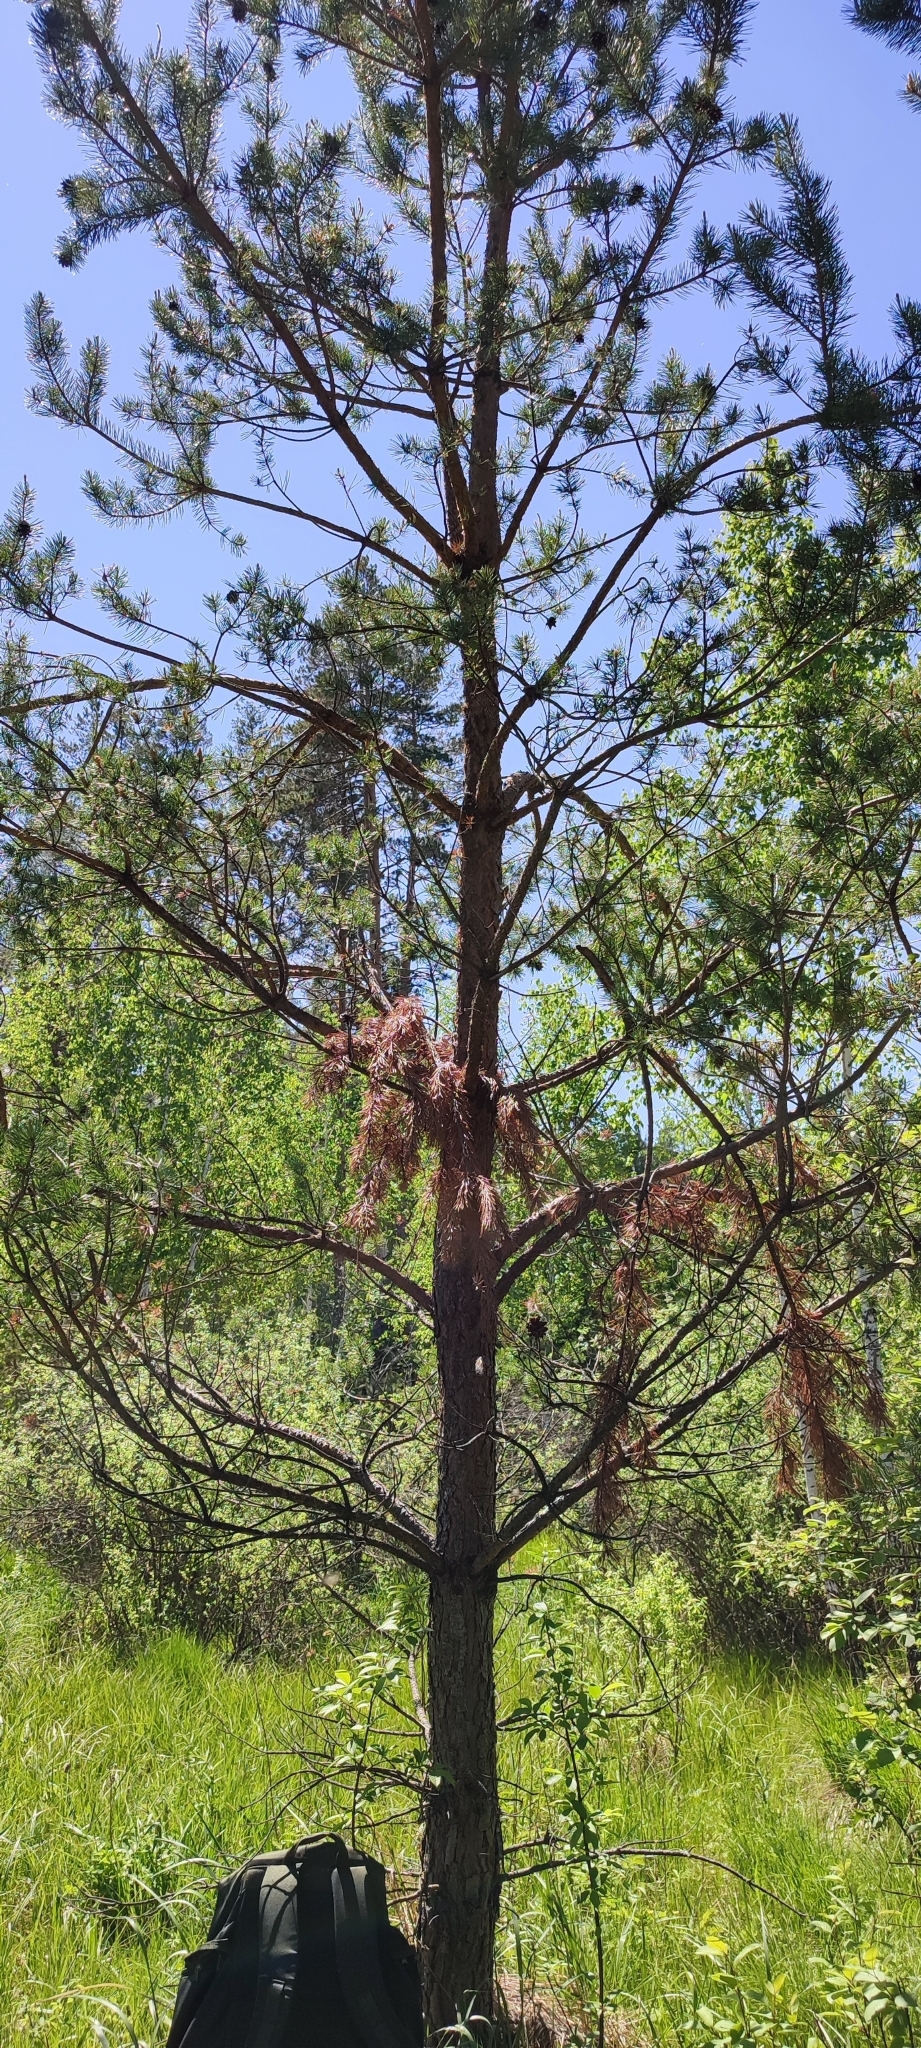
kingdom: Plantae
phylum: Tracheophyta
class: Pinopsida
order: Pinales
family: Pinaceae
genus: Pinus
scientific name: Pinus sylvestris
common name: Scots pine
